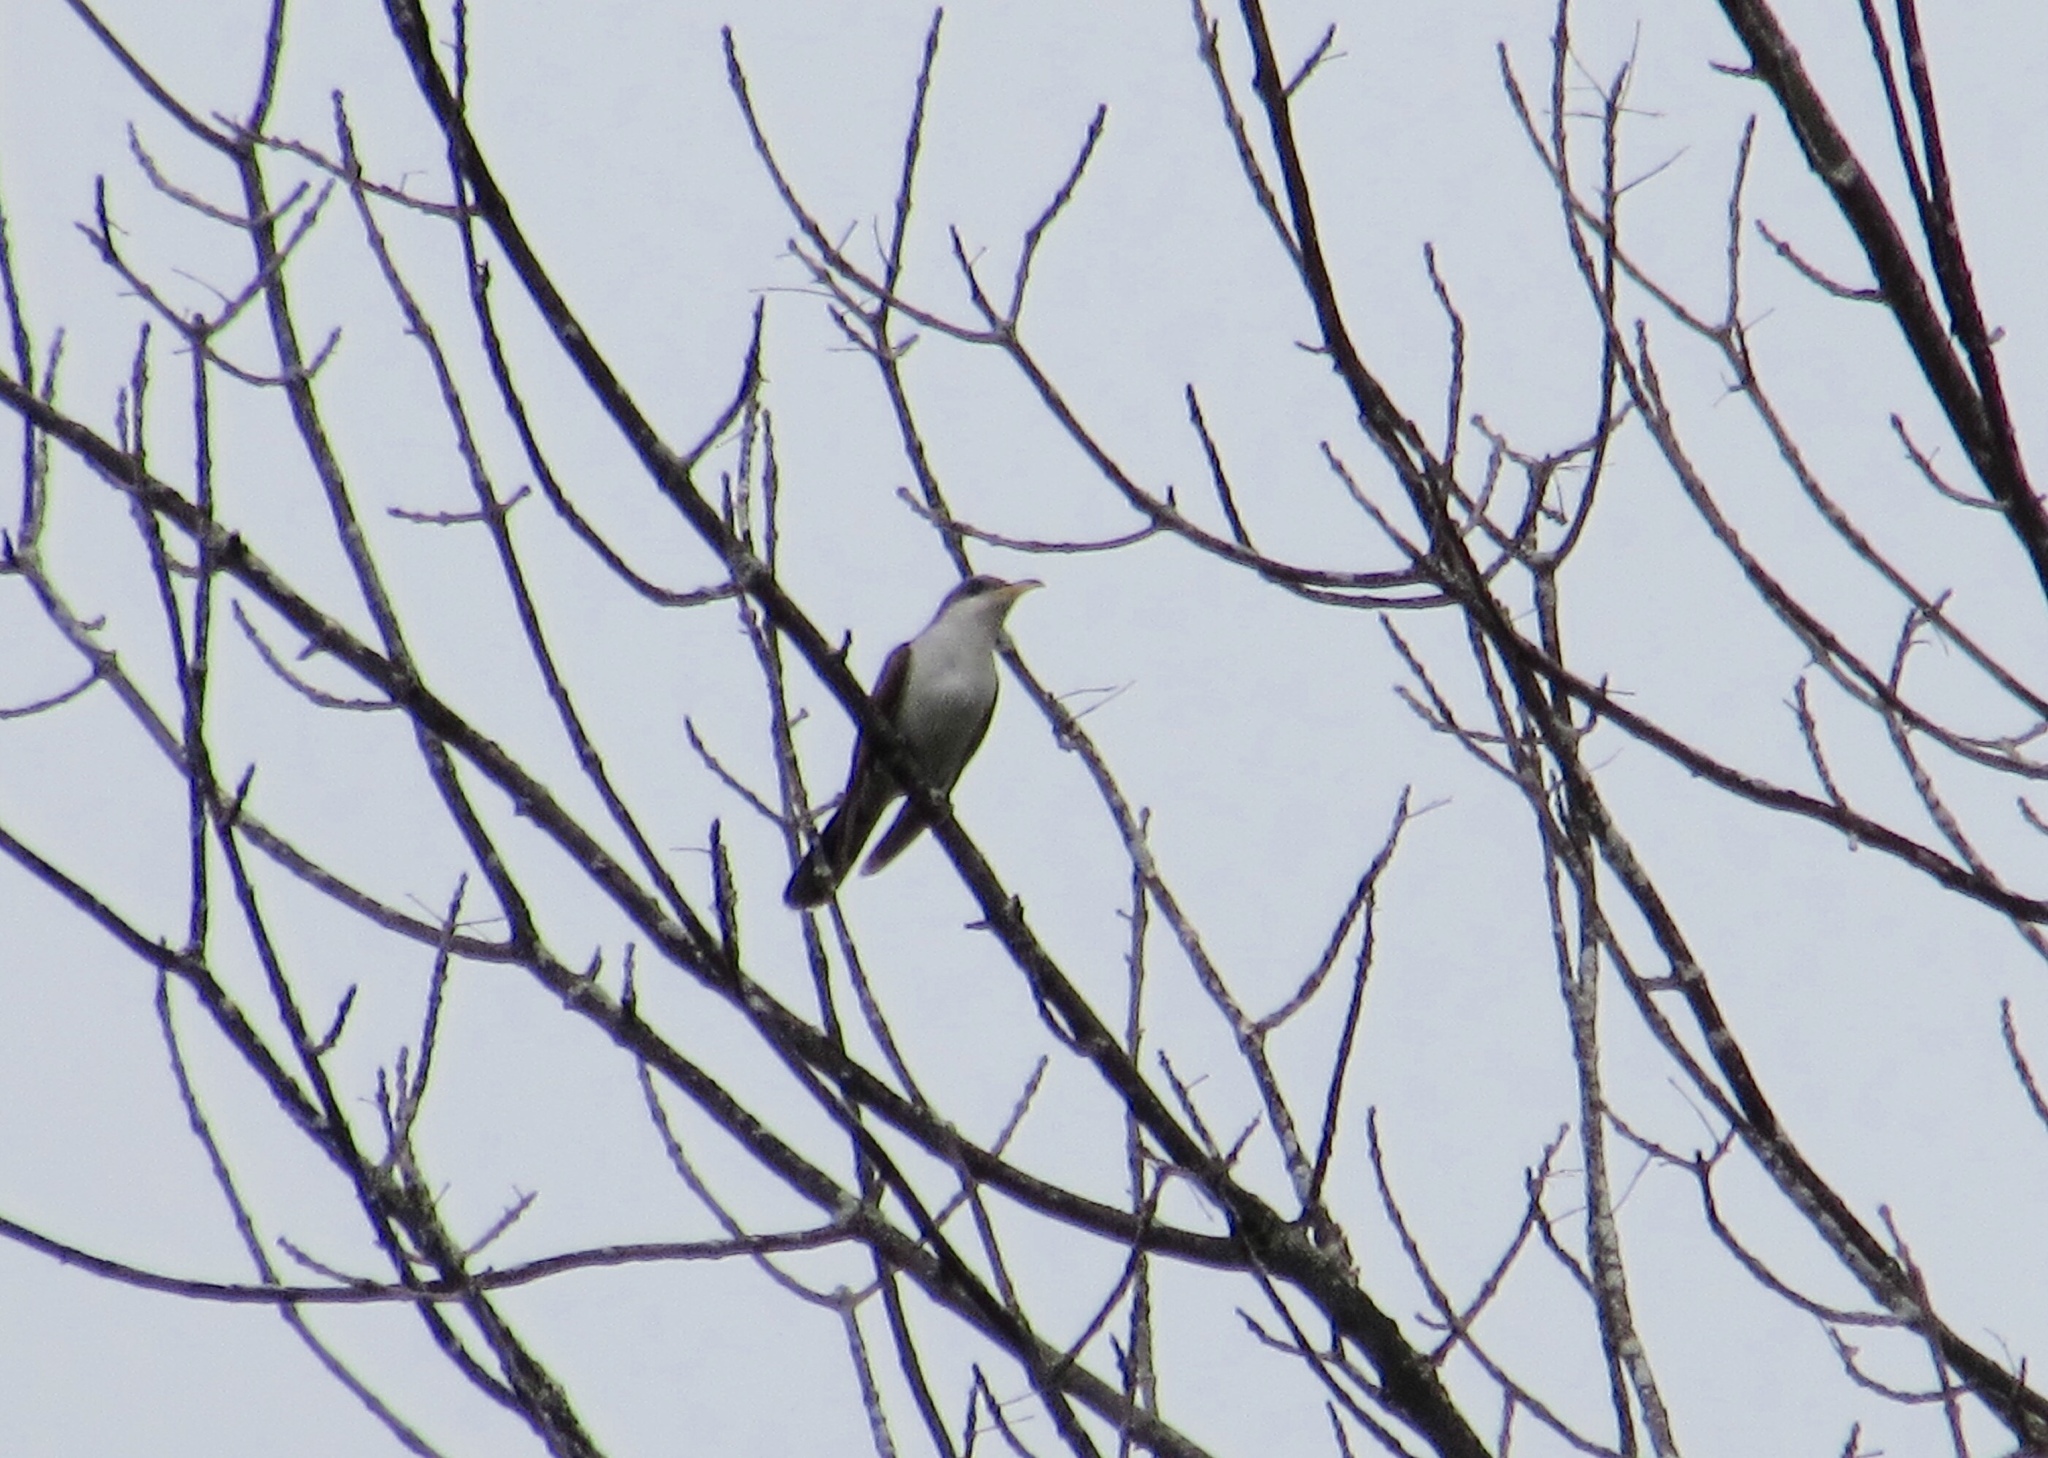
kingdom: Animalia
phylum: Chordata
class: Aves
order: Cuculiformes
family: Cuculidae
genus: Coccyzus
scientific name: Coccyzus americanus
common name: Yellow-billed cuckoo
